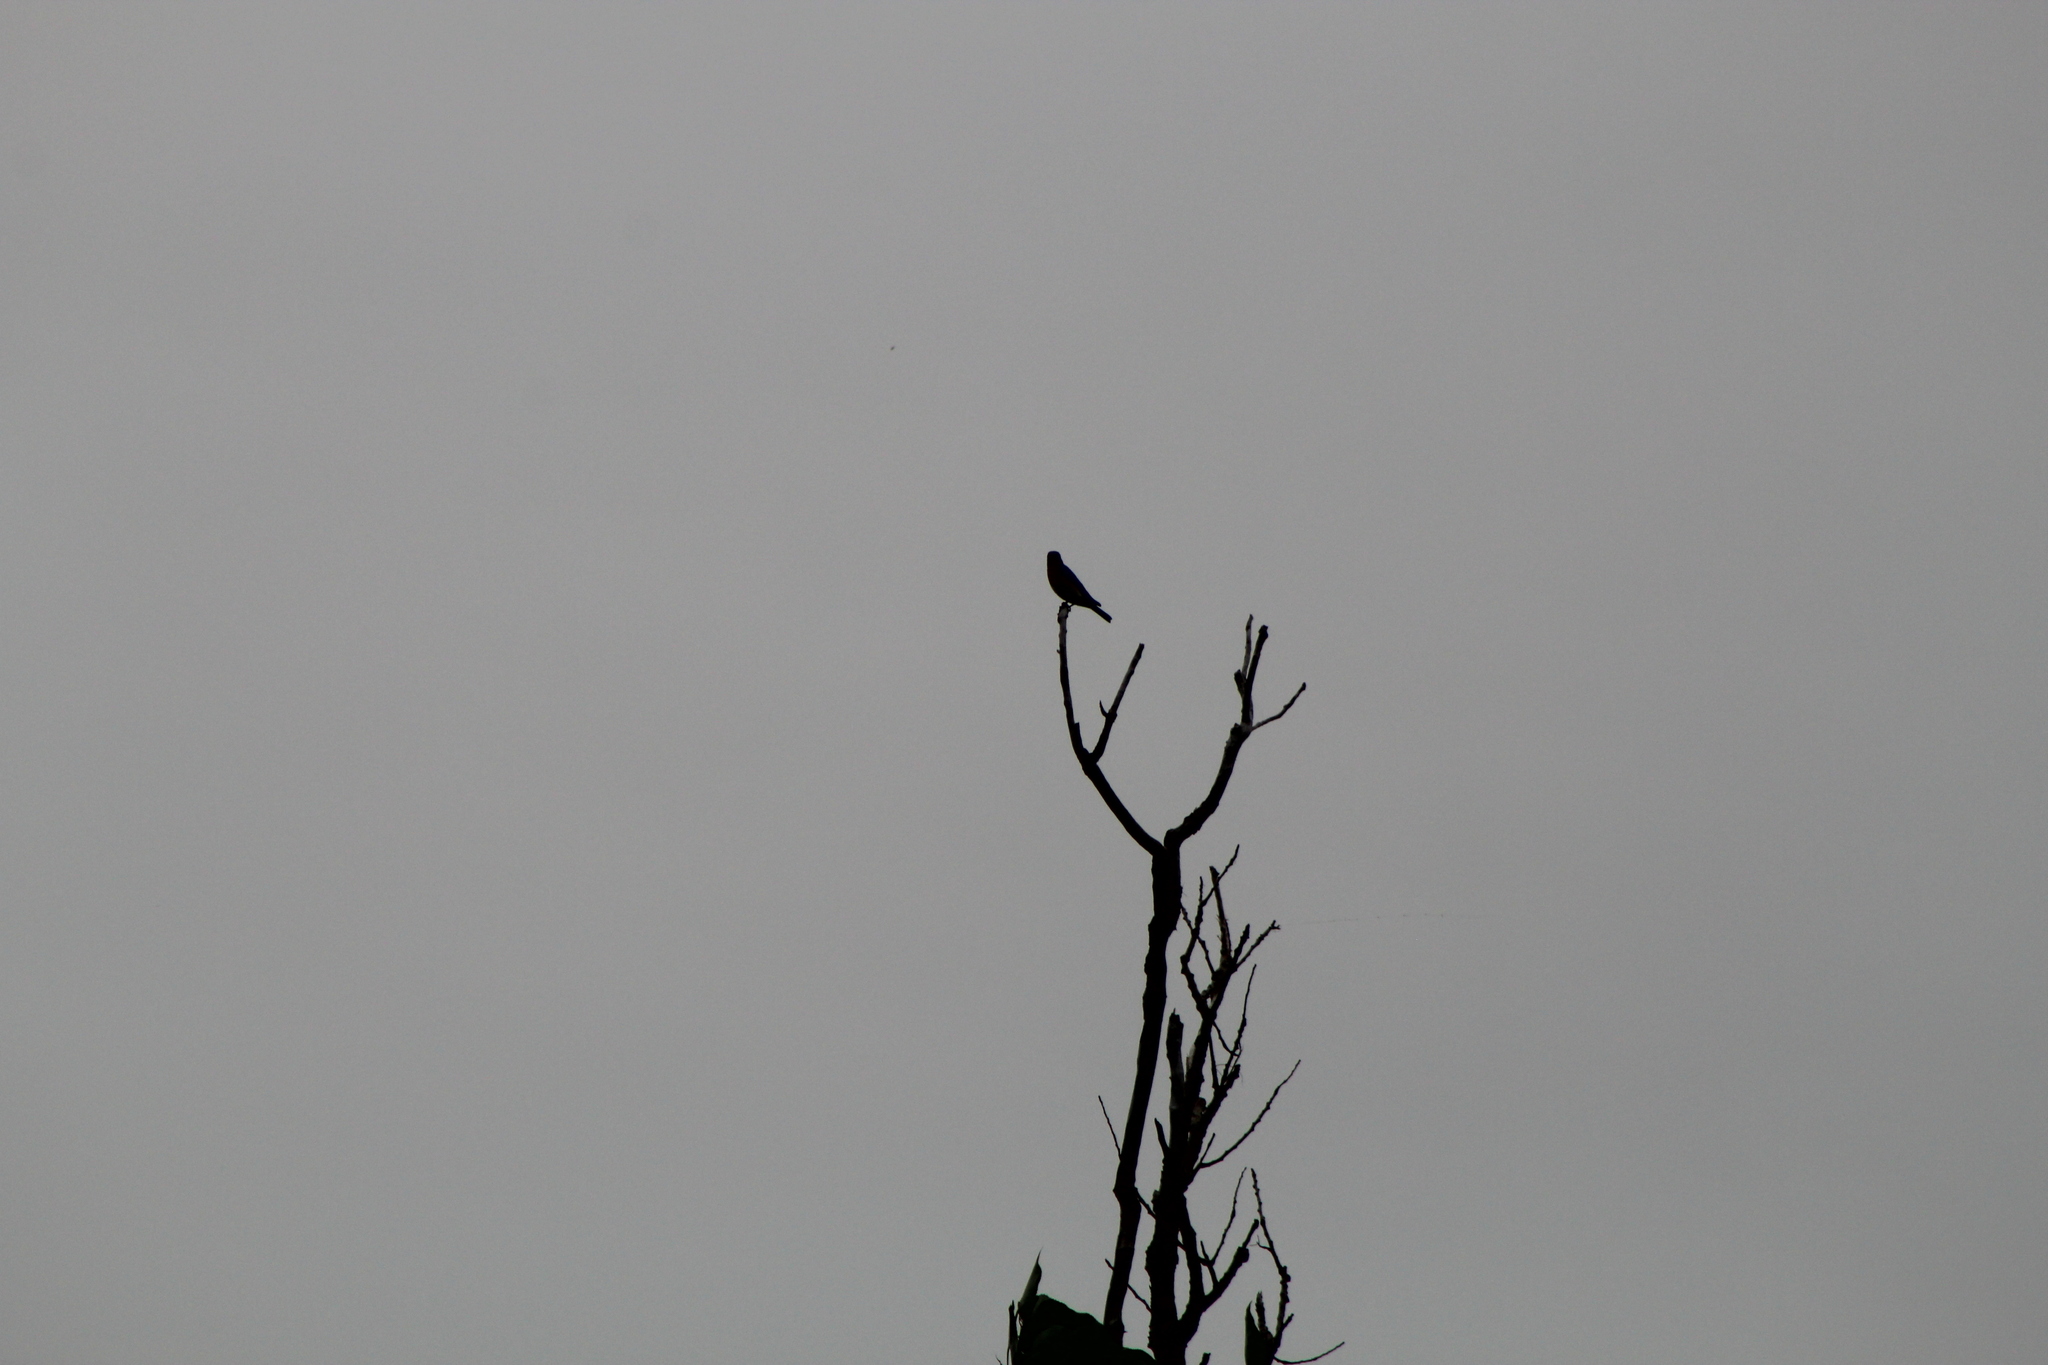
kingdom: Animalia
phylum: Chordata
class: Aves
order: Accipitriformes
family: Accipitridae
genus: Ictinia
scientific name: Ictinia mississippiensis
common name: Mississippi kite
